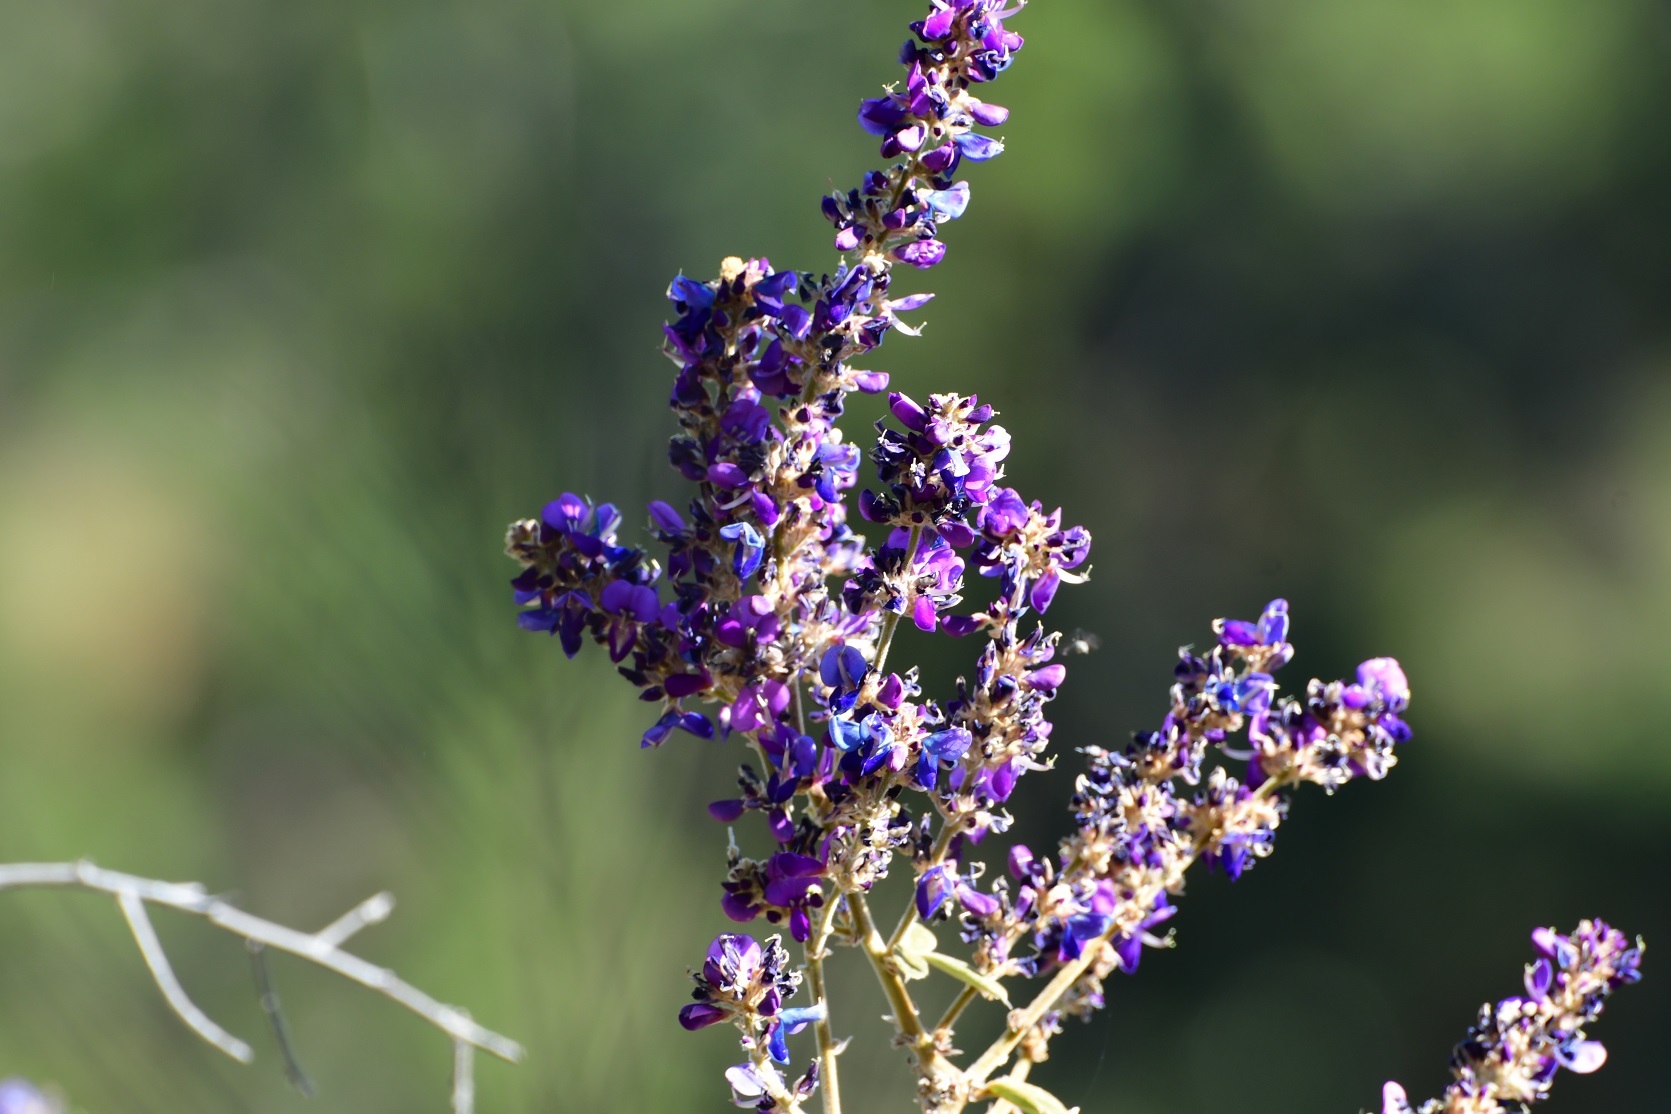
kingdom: Plantae
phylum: Tracheophyta
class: Magnoliopsida
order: Fabales
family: Fabaceae
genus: Desmodium
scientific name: Desmodium polystachyum
